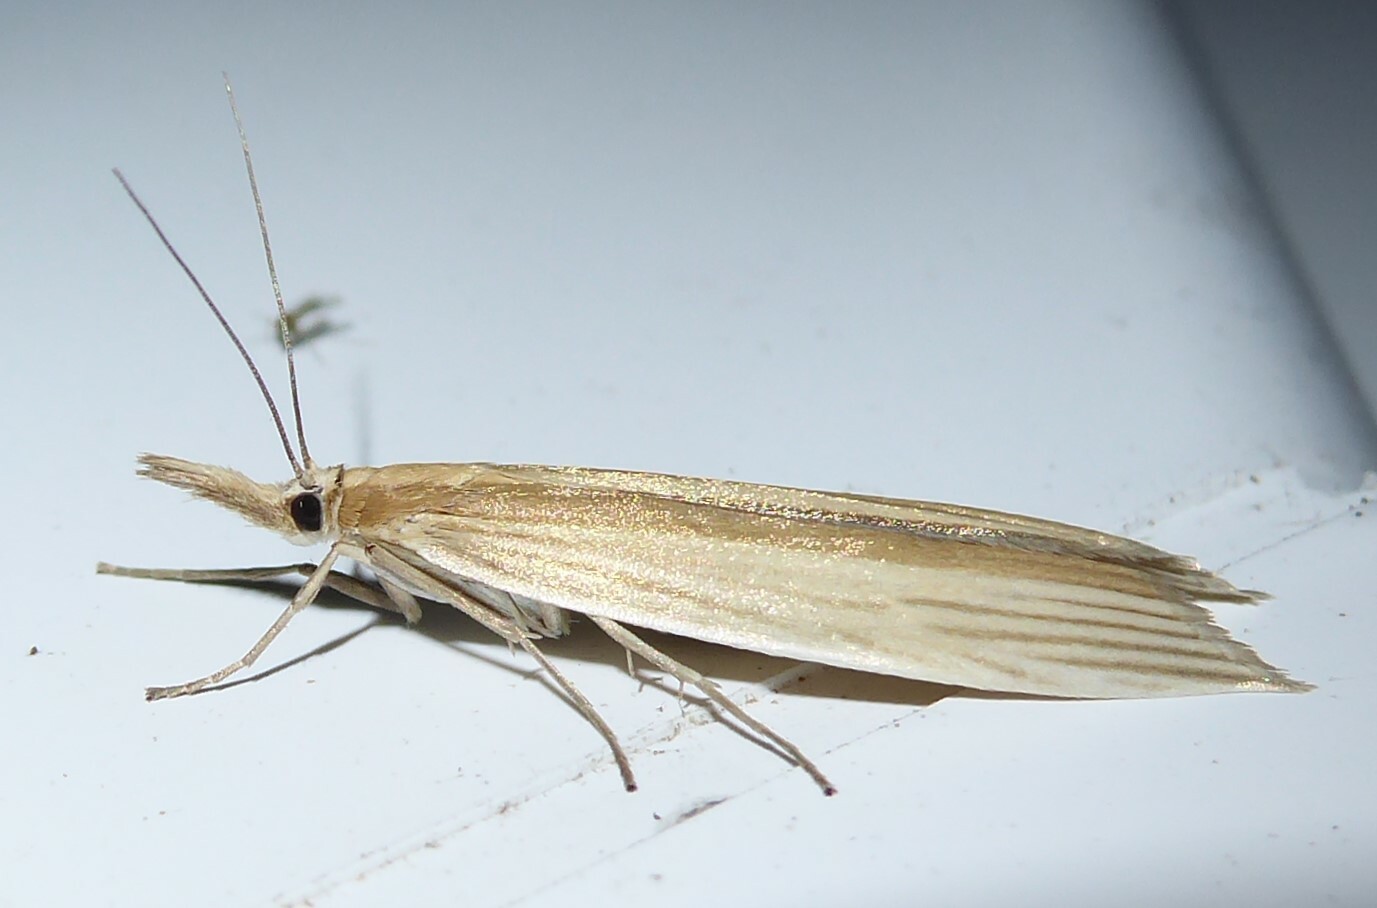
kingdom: Animalia
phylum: Arthropoda
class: Insecta
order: Lepidoptera
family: Crambidae
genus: Orocrambus
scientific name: Orocrambus angustipennis
